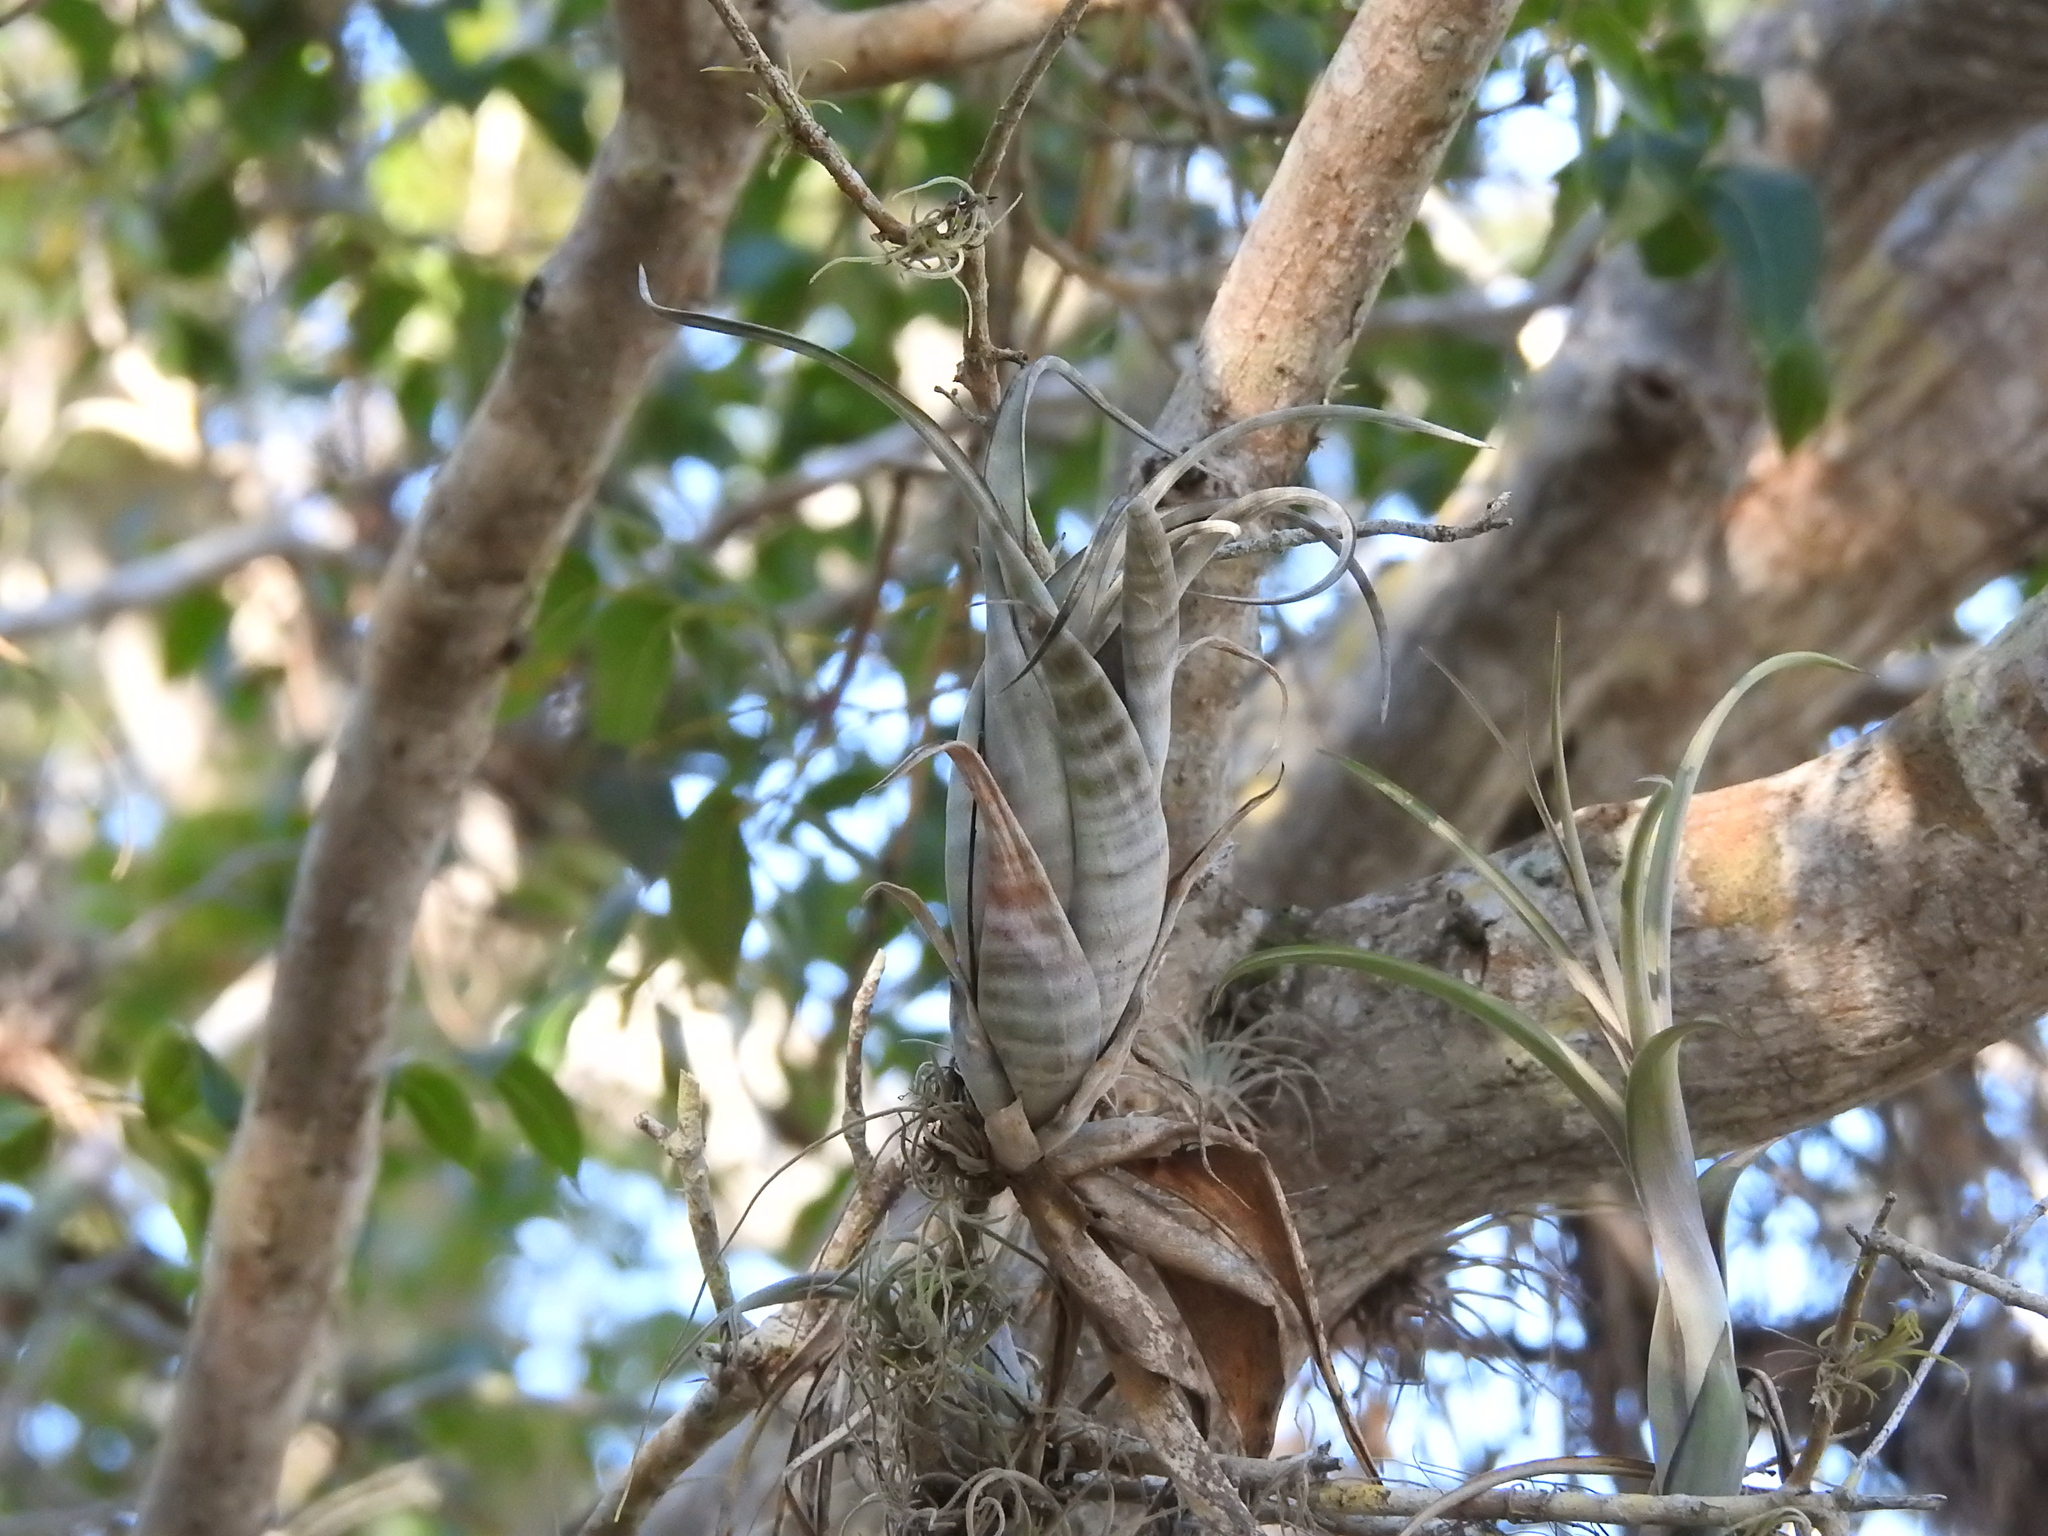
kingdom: Plantae
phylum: Tracheophyta
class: Liliopsida
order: Poales
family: Bromeliaceae
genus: Tillandsia
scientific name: Tillandsia flexuosa
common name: Banded airplant
